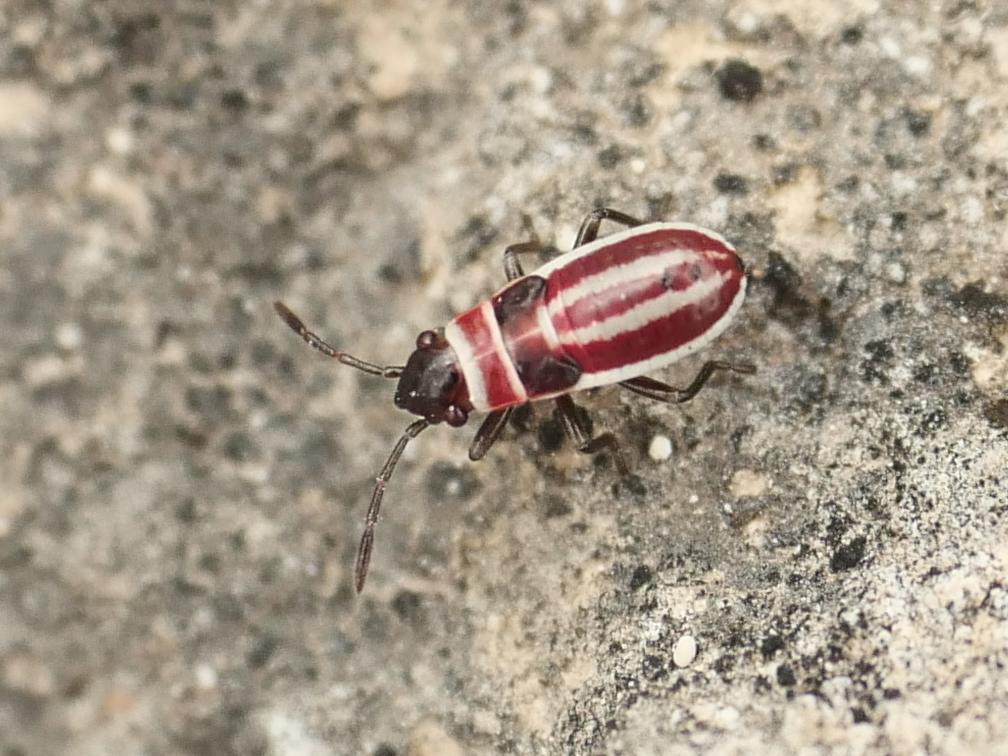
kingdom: Animalia
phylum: Arthropoda
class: Insecta
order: Hemiptera
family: Lygaeidae
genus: Ochrostomus
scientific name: Ochrostomus pulchellus
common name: Lygaeid bug
